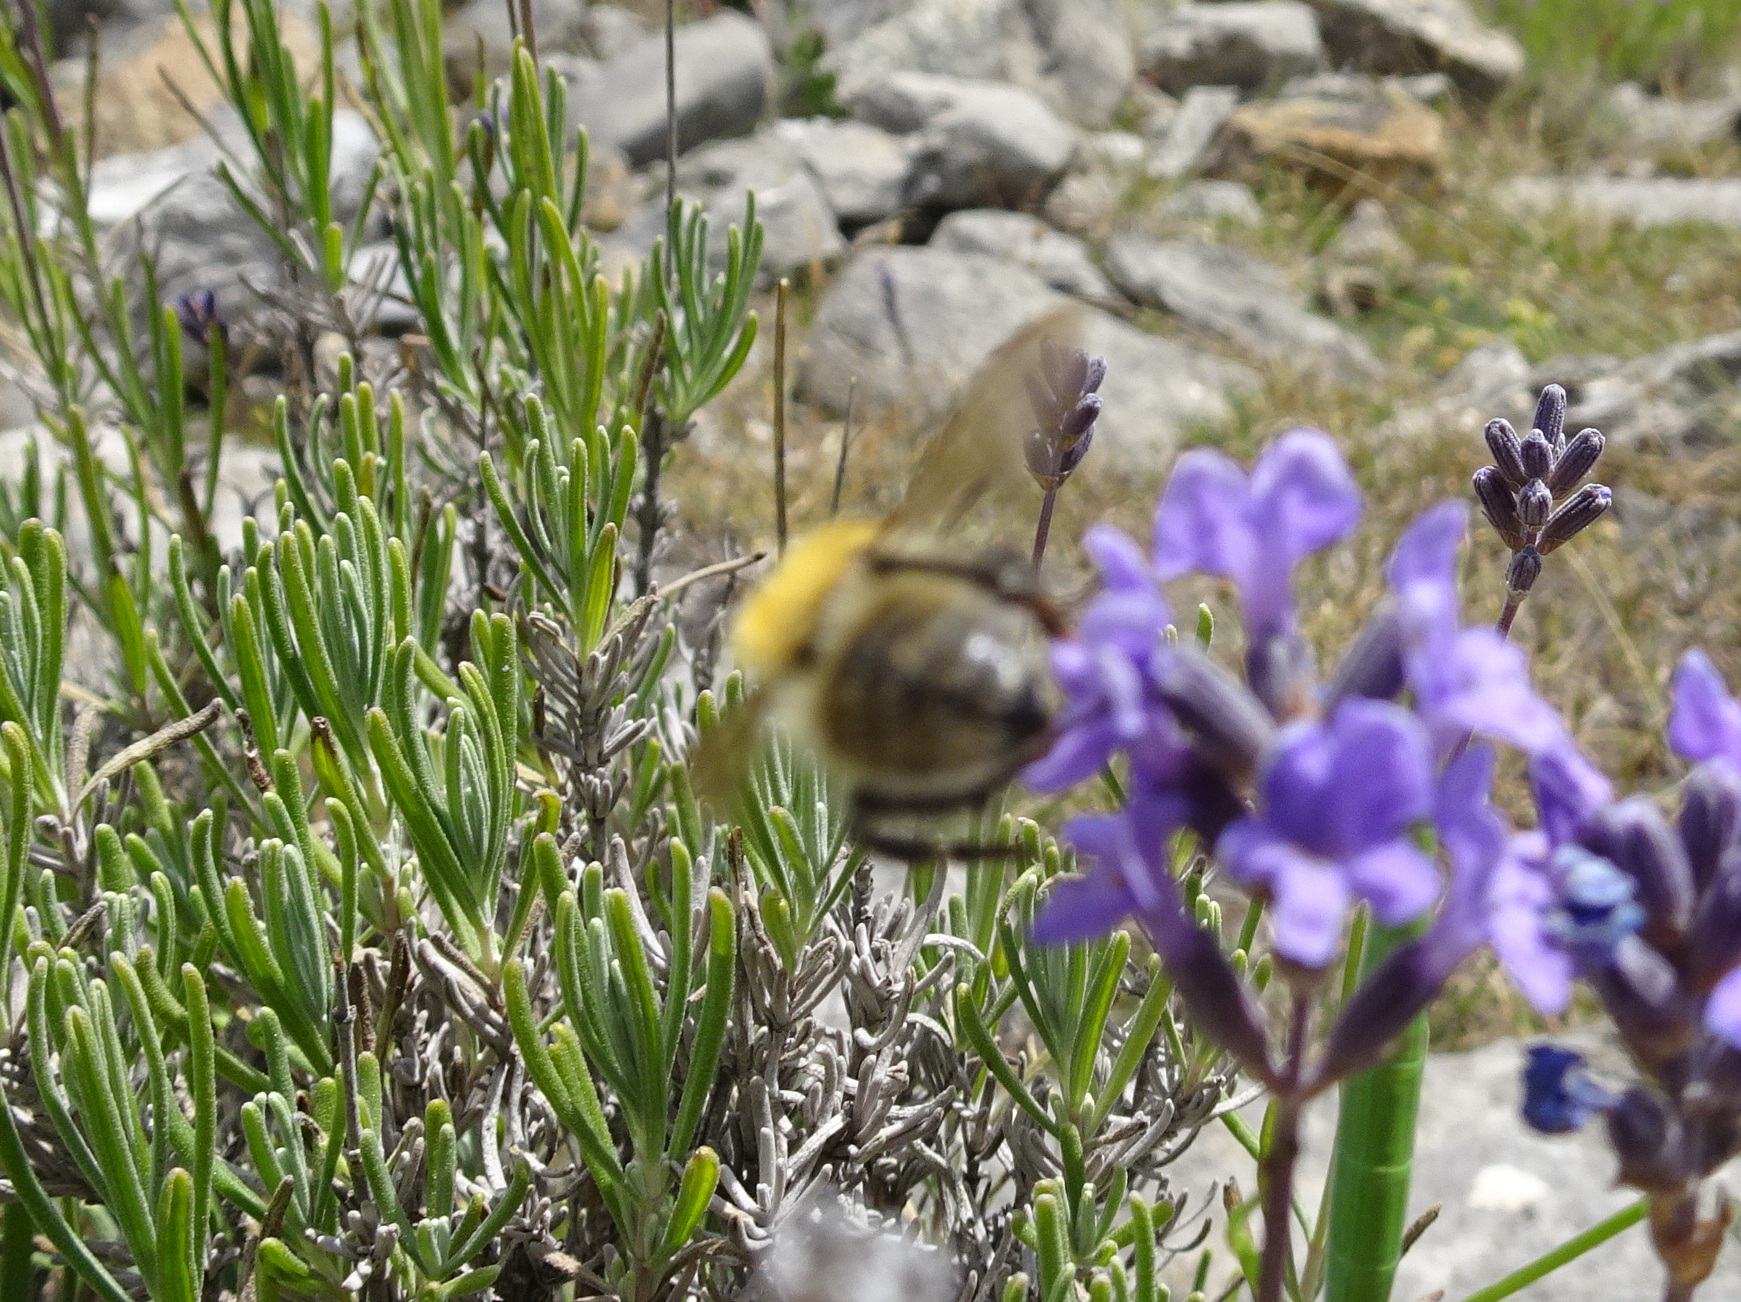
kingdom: Animalia
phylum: Arthropoda
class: Insecta
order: Hymenoptera
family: Apidae
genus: Bombus
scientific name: Bombus pascuorum
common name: Common carder bee
